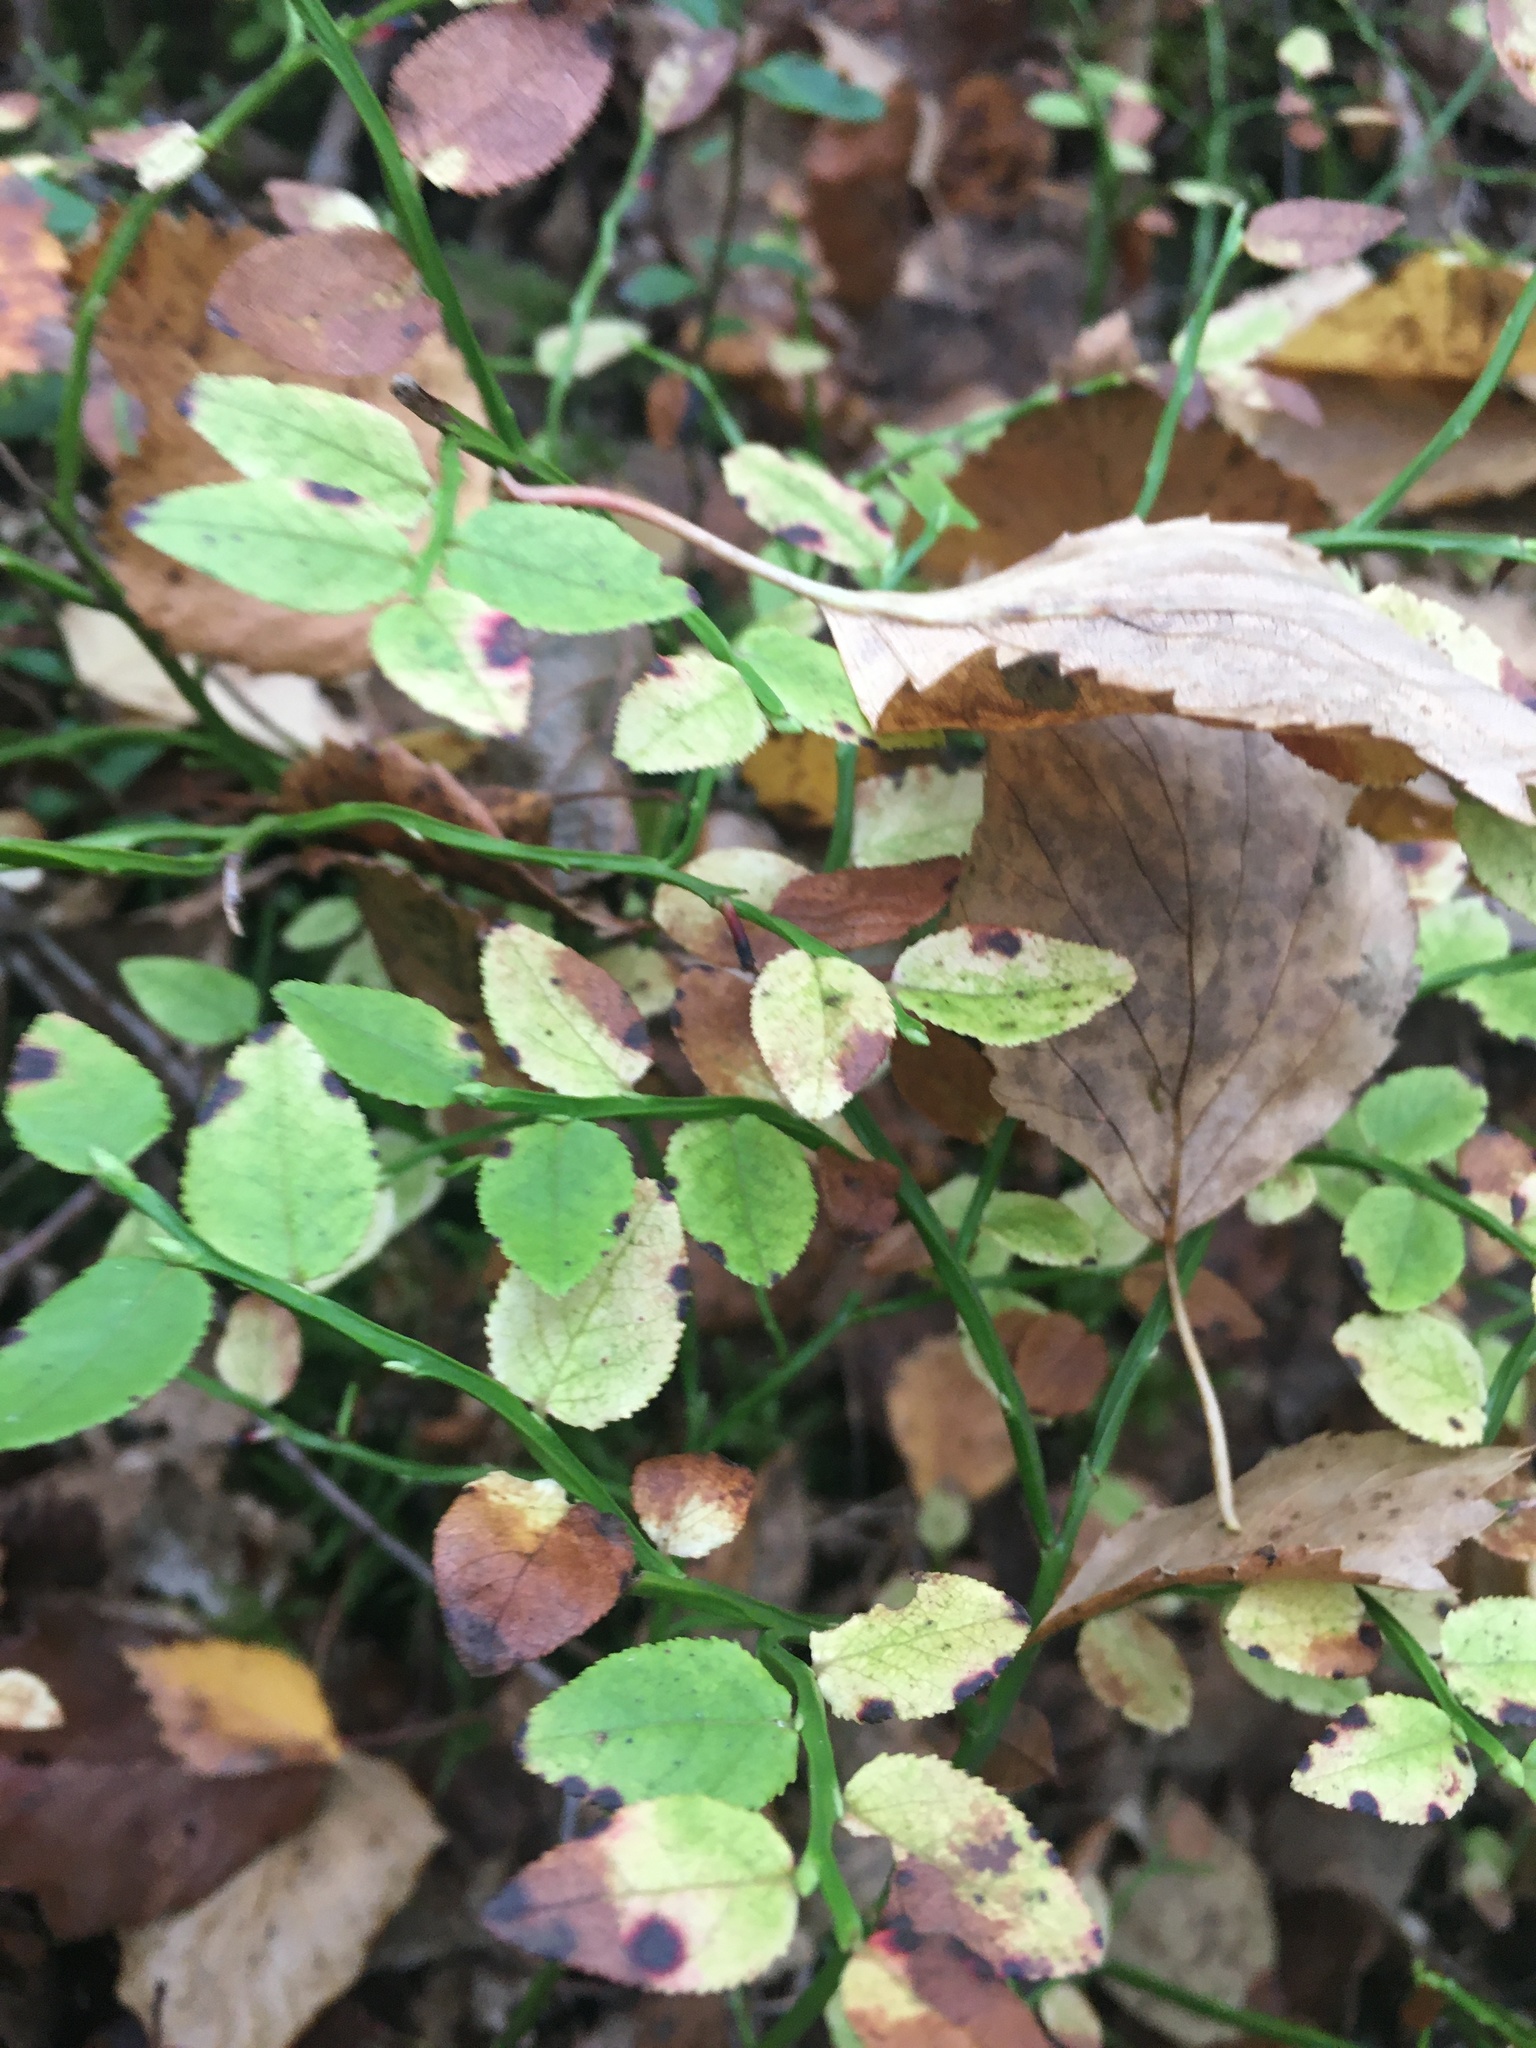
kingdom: Plantae
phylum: Tracheophyta
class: Magnoliopsida
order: Ericales
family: Ericaceae
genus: Vaccinium
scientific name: Vaccinium myrtillus
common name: Bilberry
